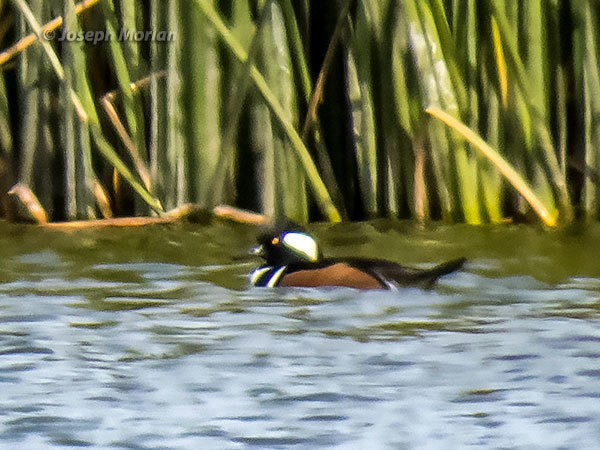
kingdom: Animalia
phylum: Chordata
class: Aves
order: Anseriformes
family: Anatidae
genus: Lophodytes
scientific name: Lophodytes cucullatus
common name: Hooded merganser
